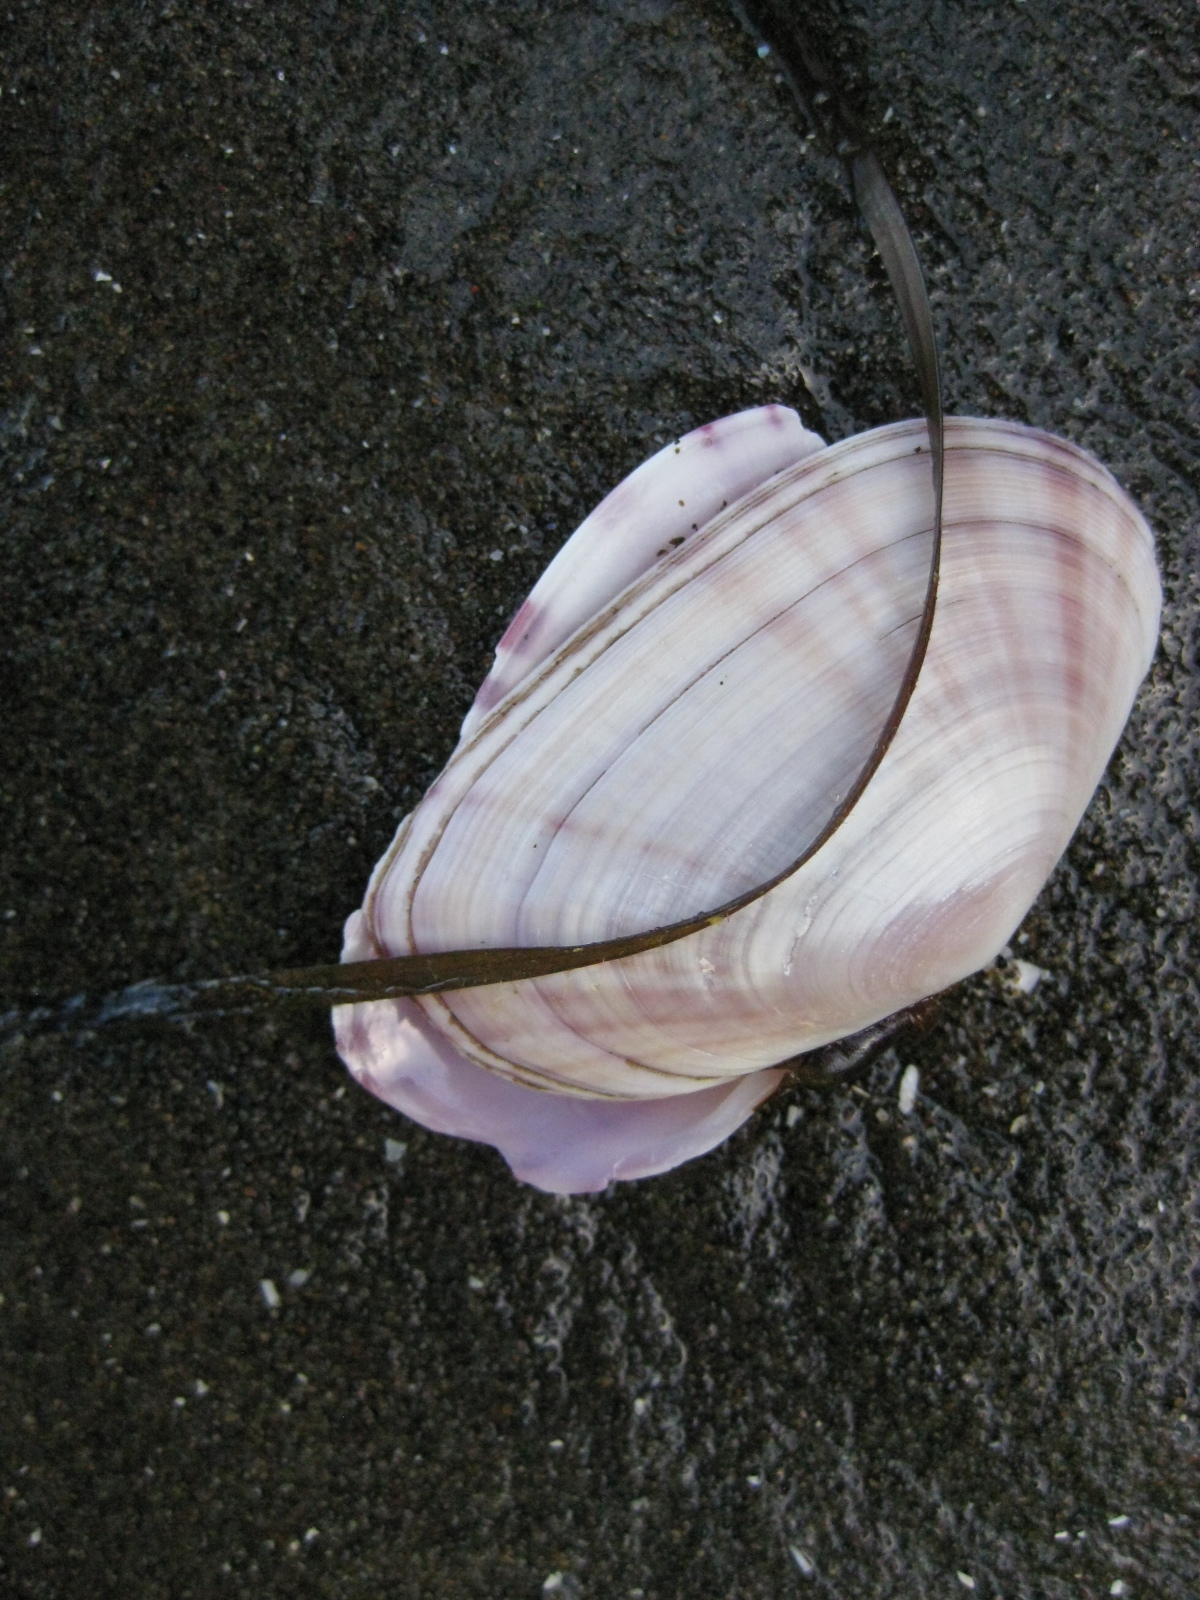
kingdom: Animalia
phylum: Mollusca
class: Bivalvia
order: Cardiida
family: Psammobiidae
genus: Gari
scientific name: Gari stangeri
